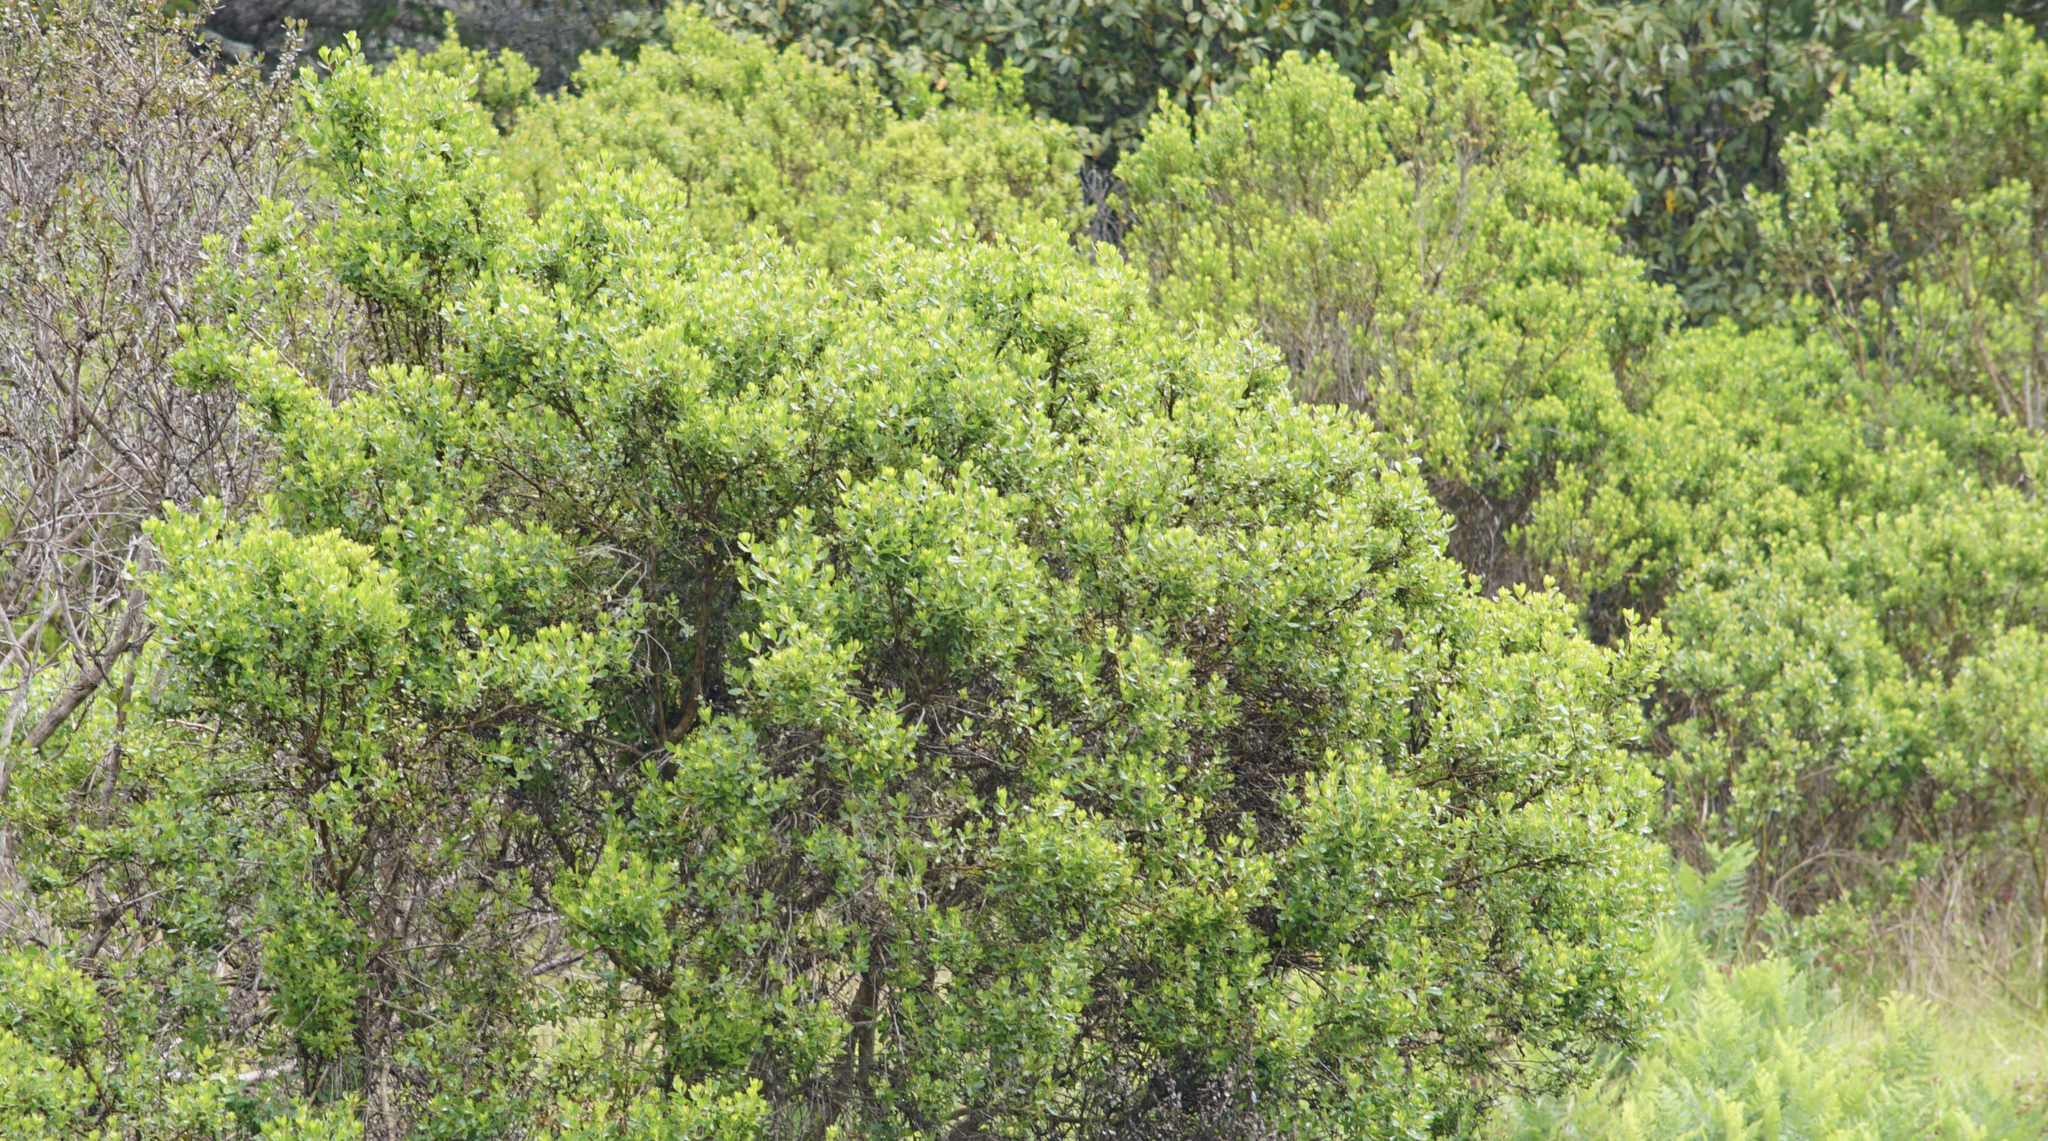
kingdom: Plantae
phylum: Tracheophyta
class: Magnoliopsida
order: Asterales
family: Asteraceae
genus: Baccharis
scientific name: Baccharis pilularis
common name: Coyotebrush
